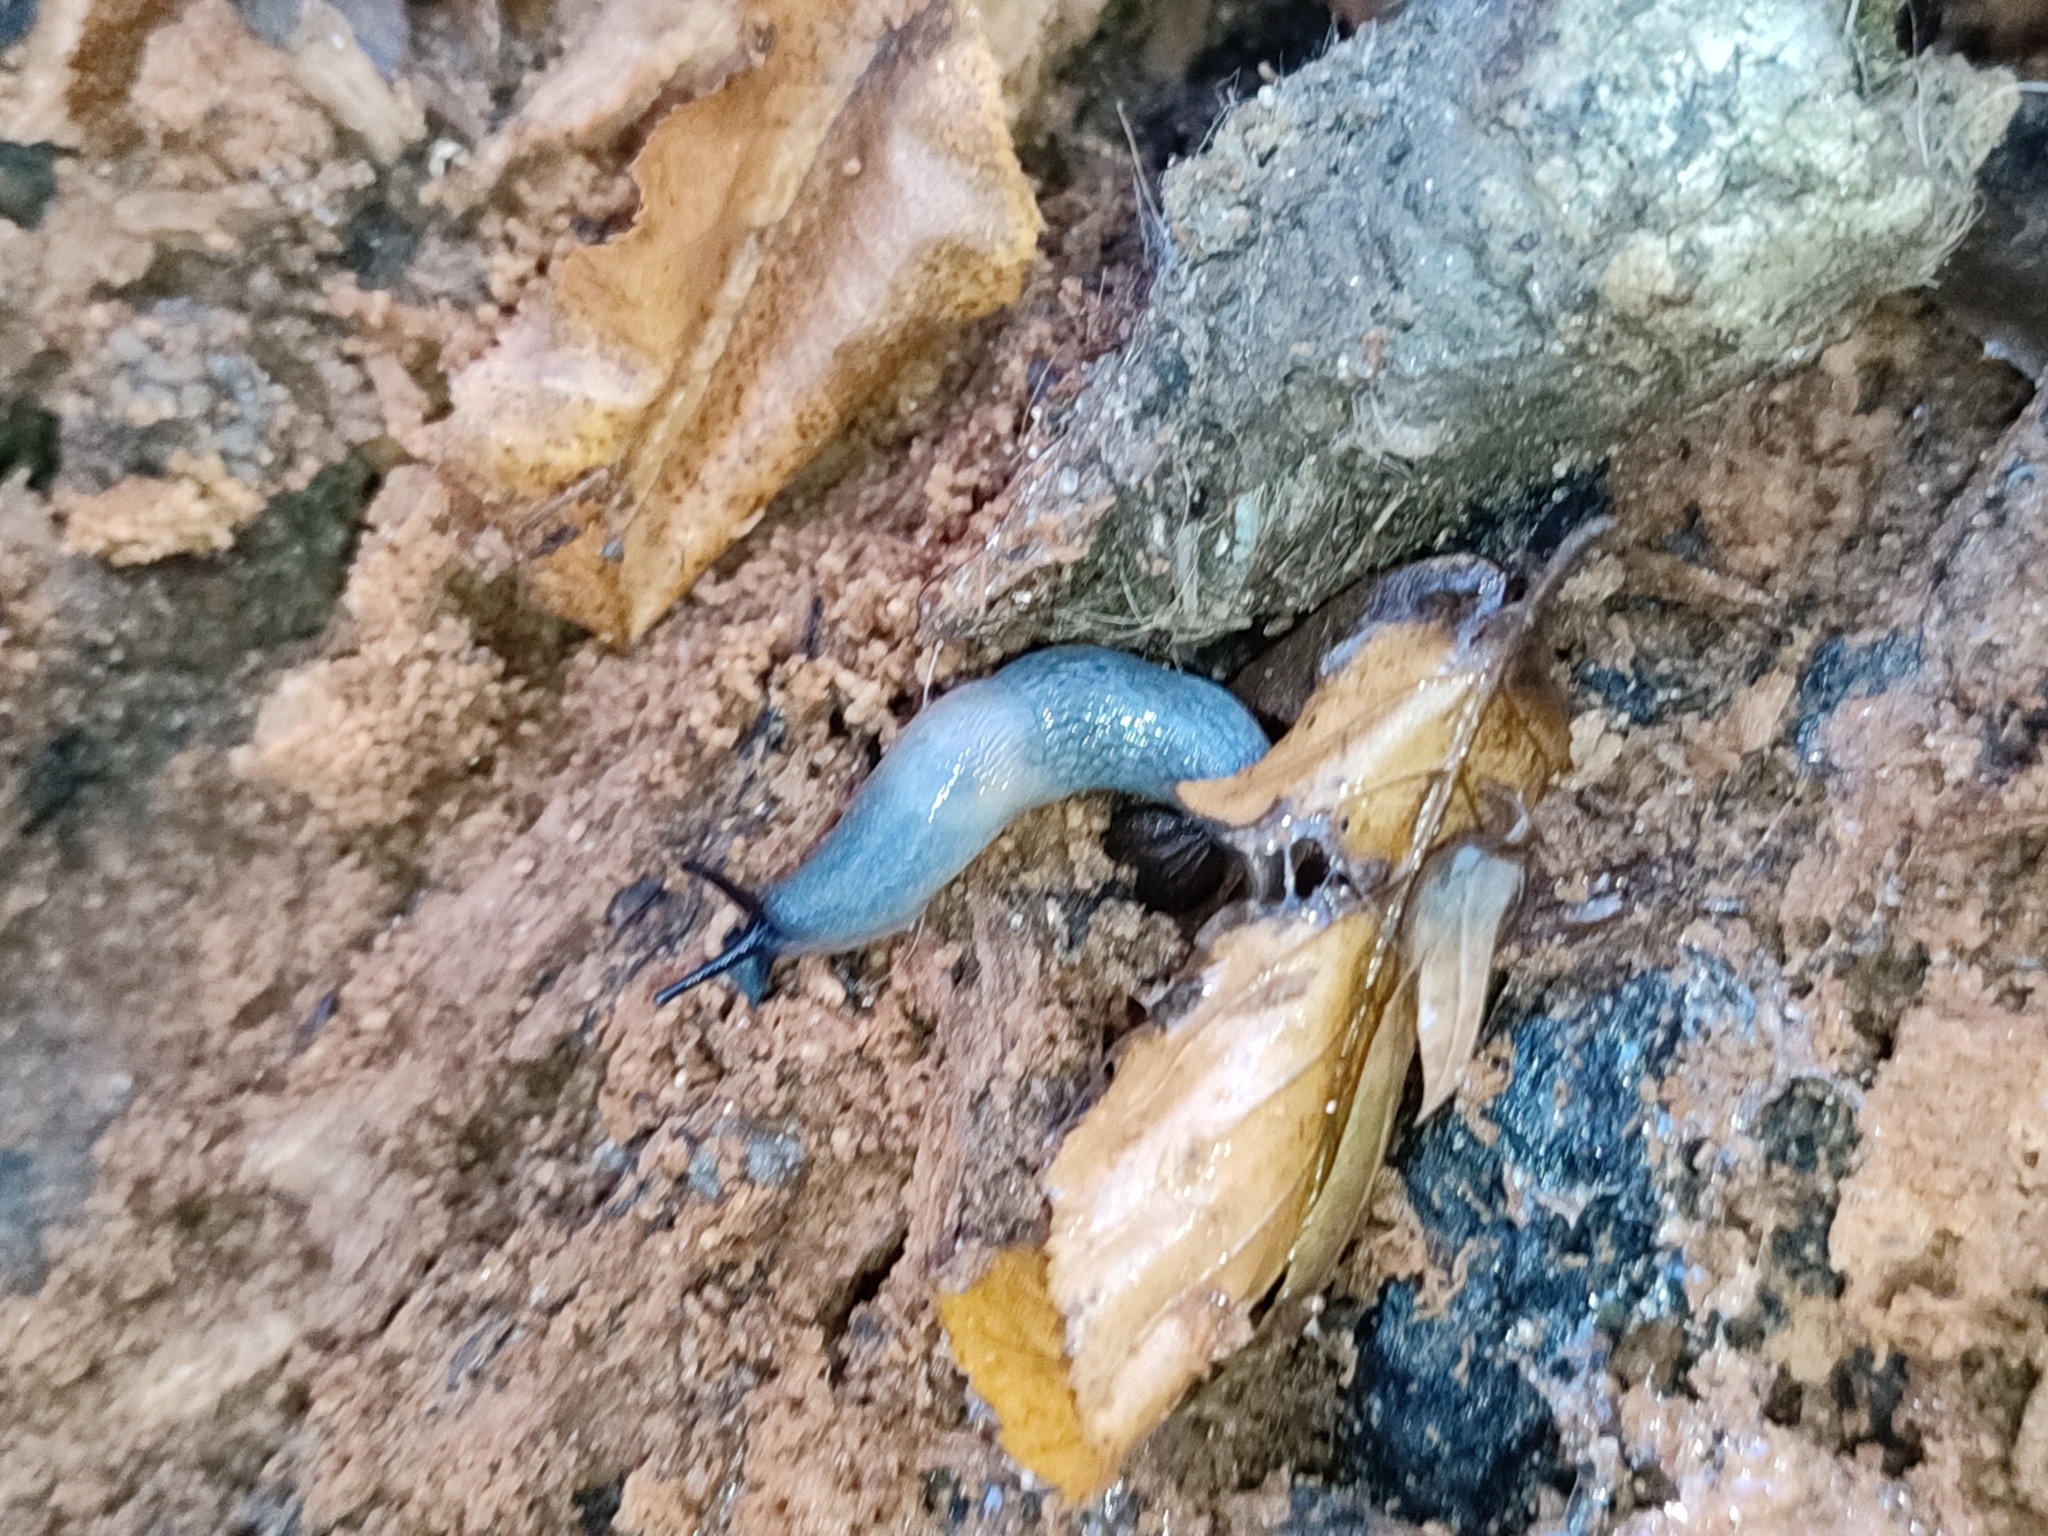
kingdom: Animalia
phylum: Mollusca
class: Gastropoda
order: Stylommatophora
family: Agriolimacidae
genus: Krynickillus
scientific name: Krynickillus melanocephalus
